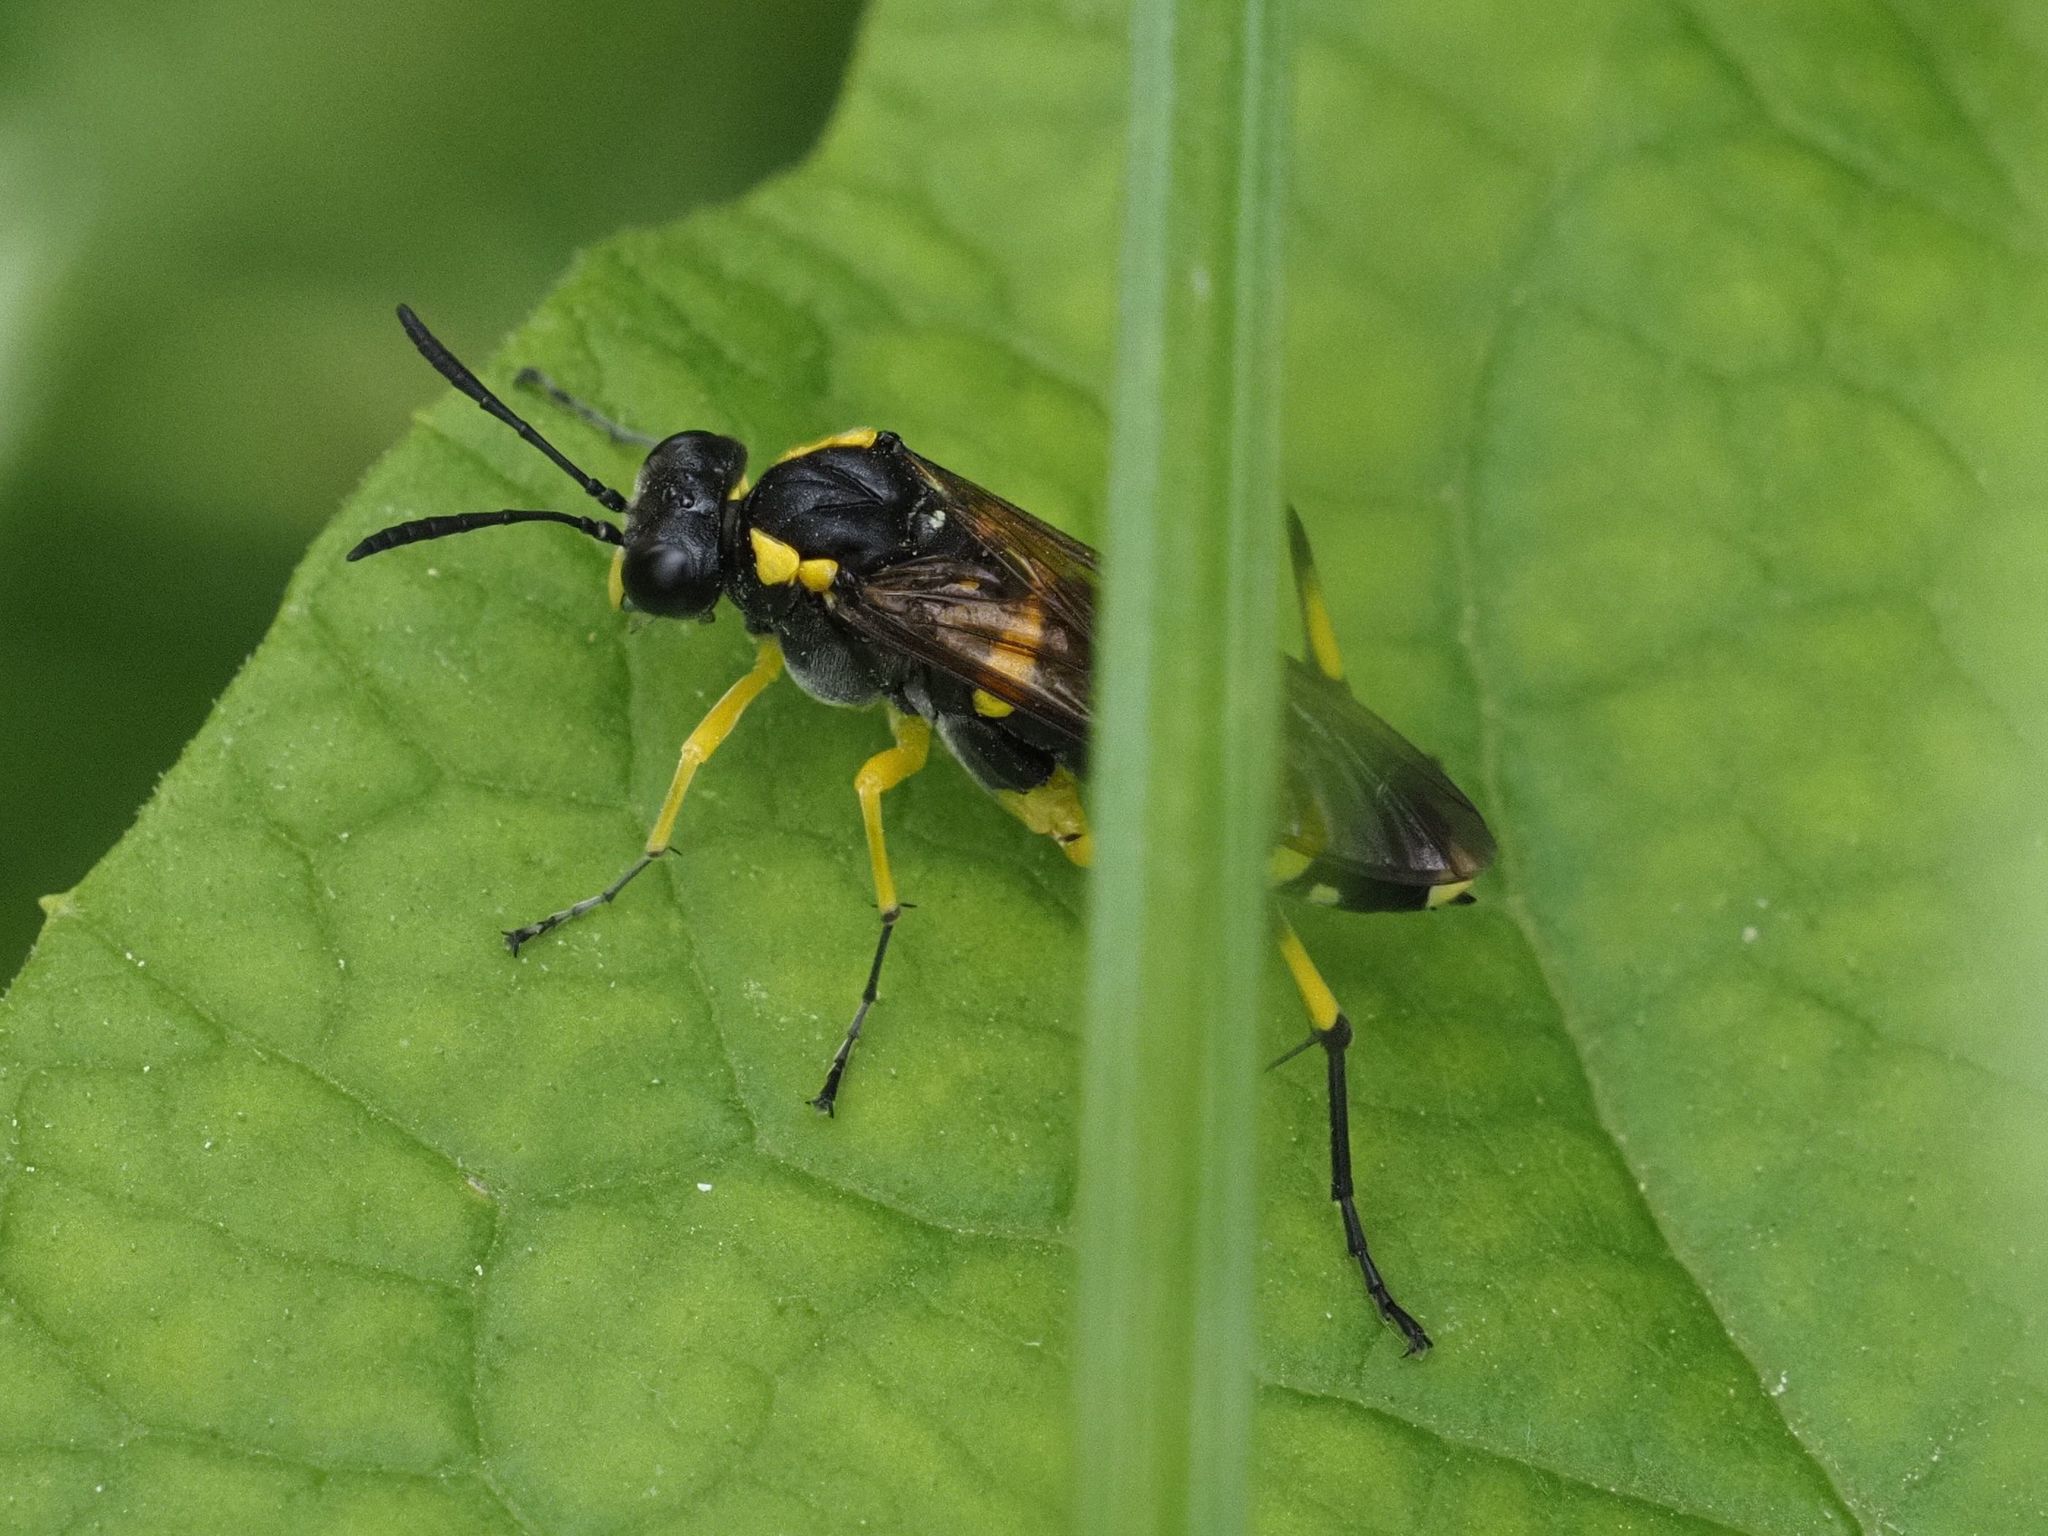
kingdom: Animalia
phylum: Arthropoda
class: Insecta
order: Hymenoptera
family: Tenthredinidae
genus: Macrophya
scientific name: Macrophya montana
